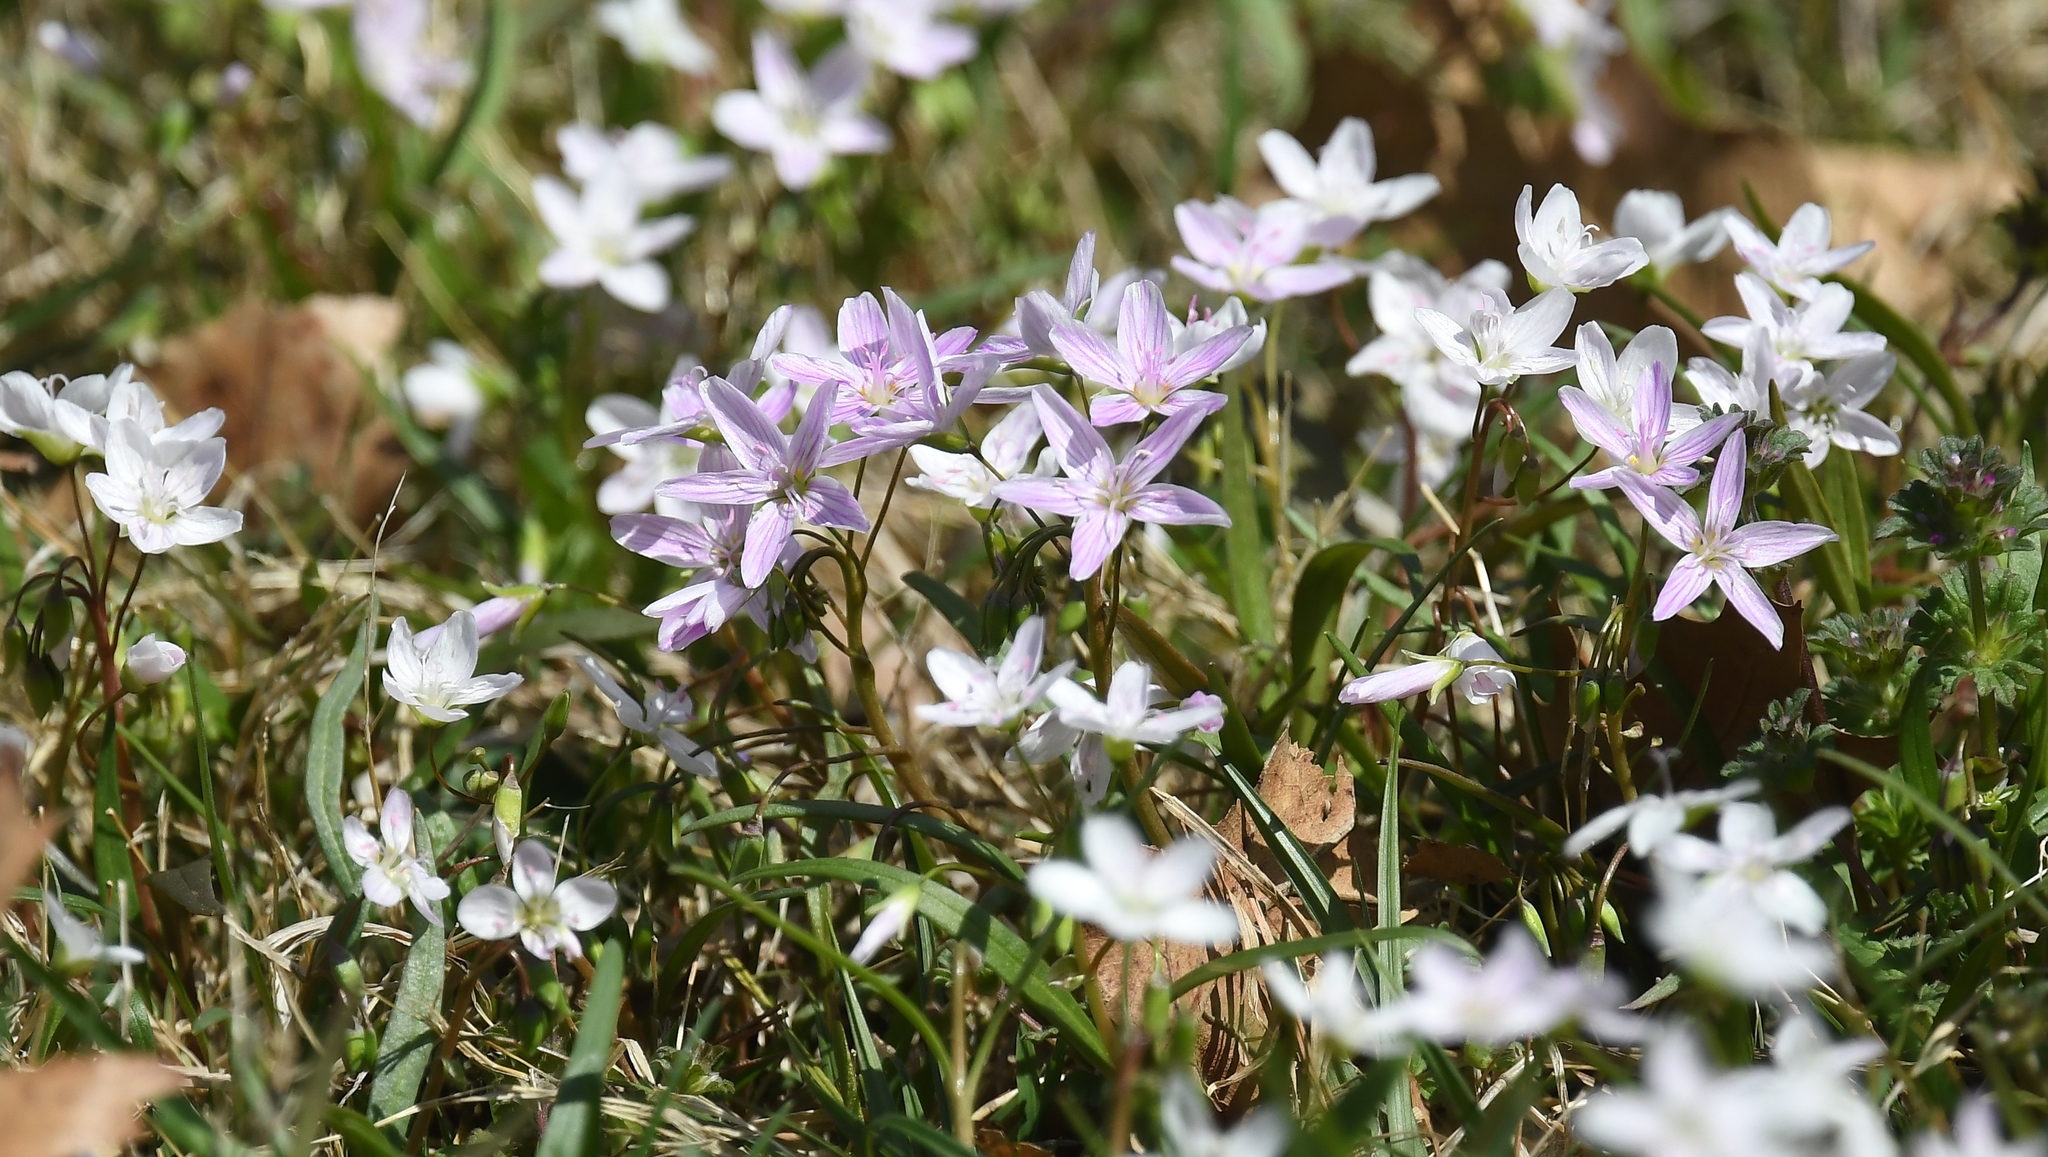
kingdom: Plantae
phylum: Tracheophyta
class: Magnoliopsida
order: Caryophyllales
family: Montiaceae
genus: Claytonia
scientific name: Claytonia virginica
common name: Virginia springbeauty
